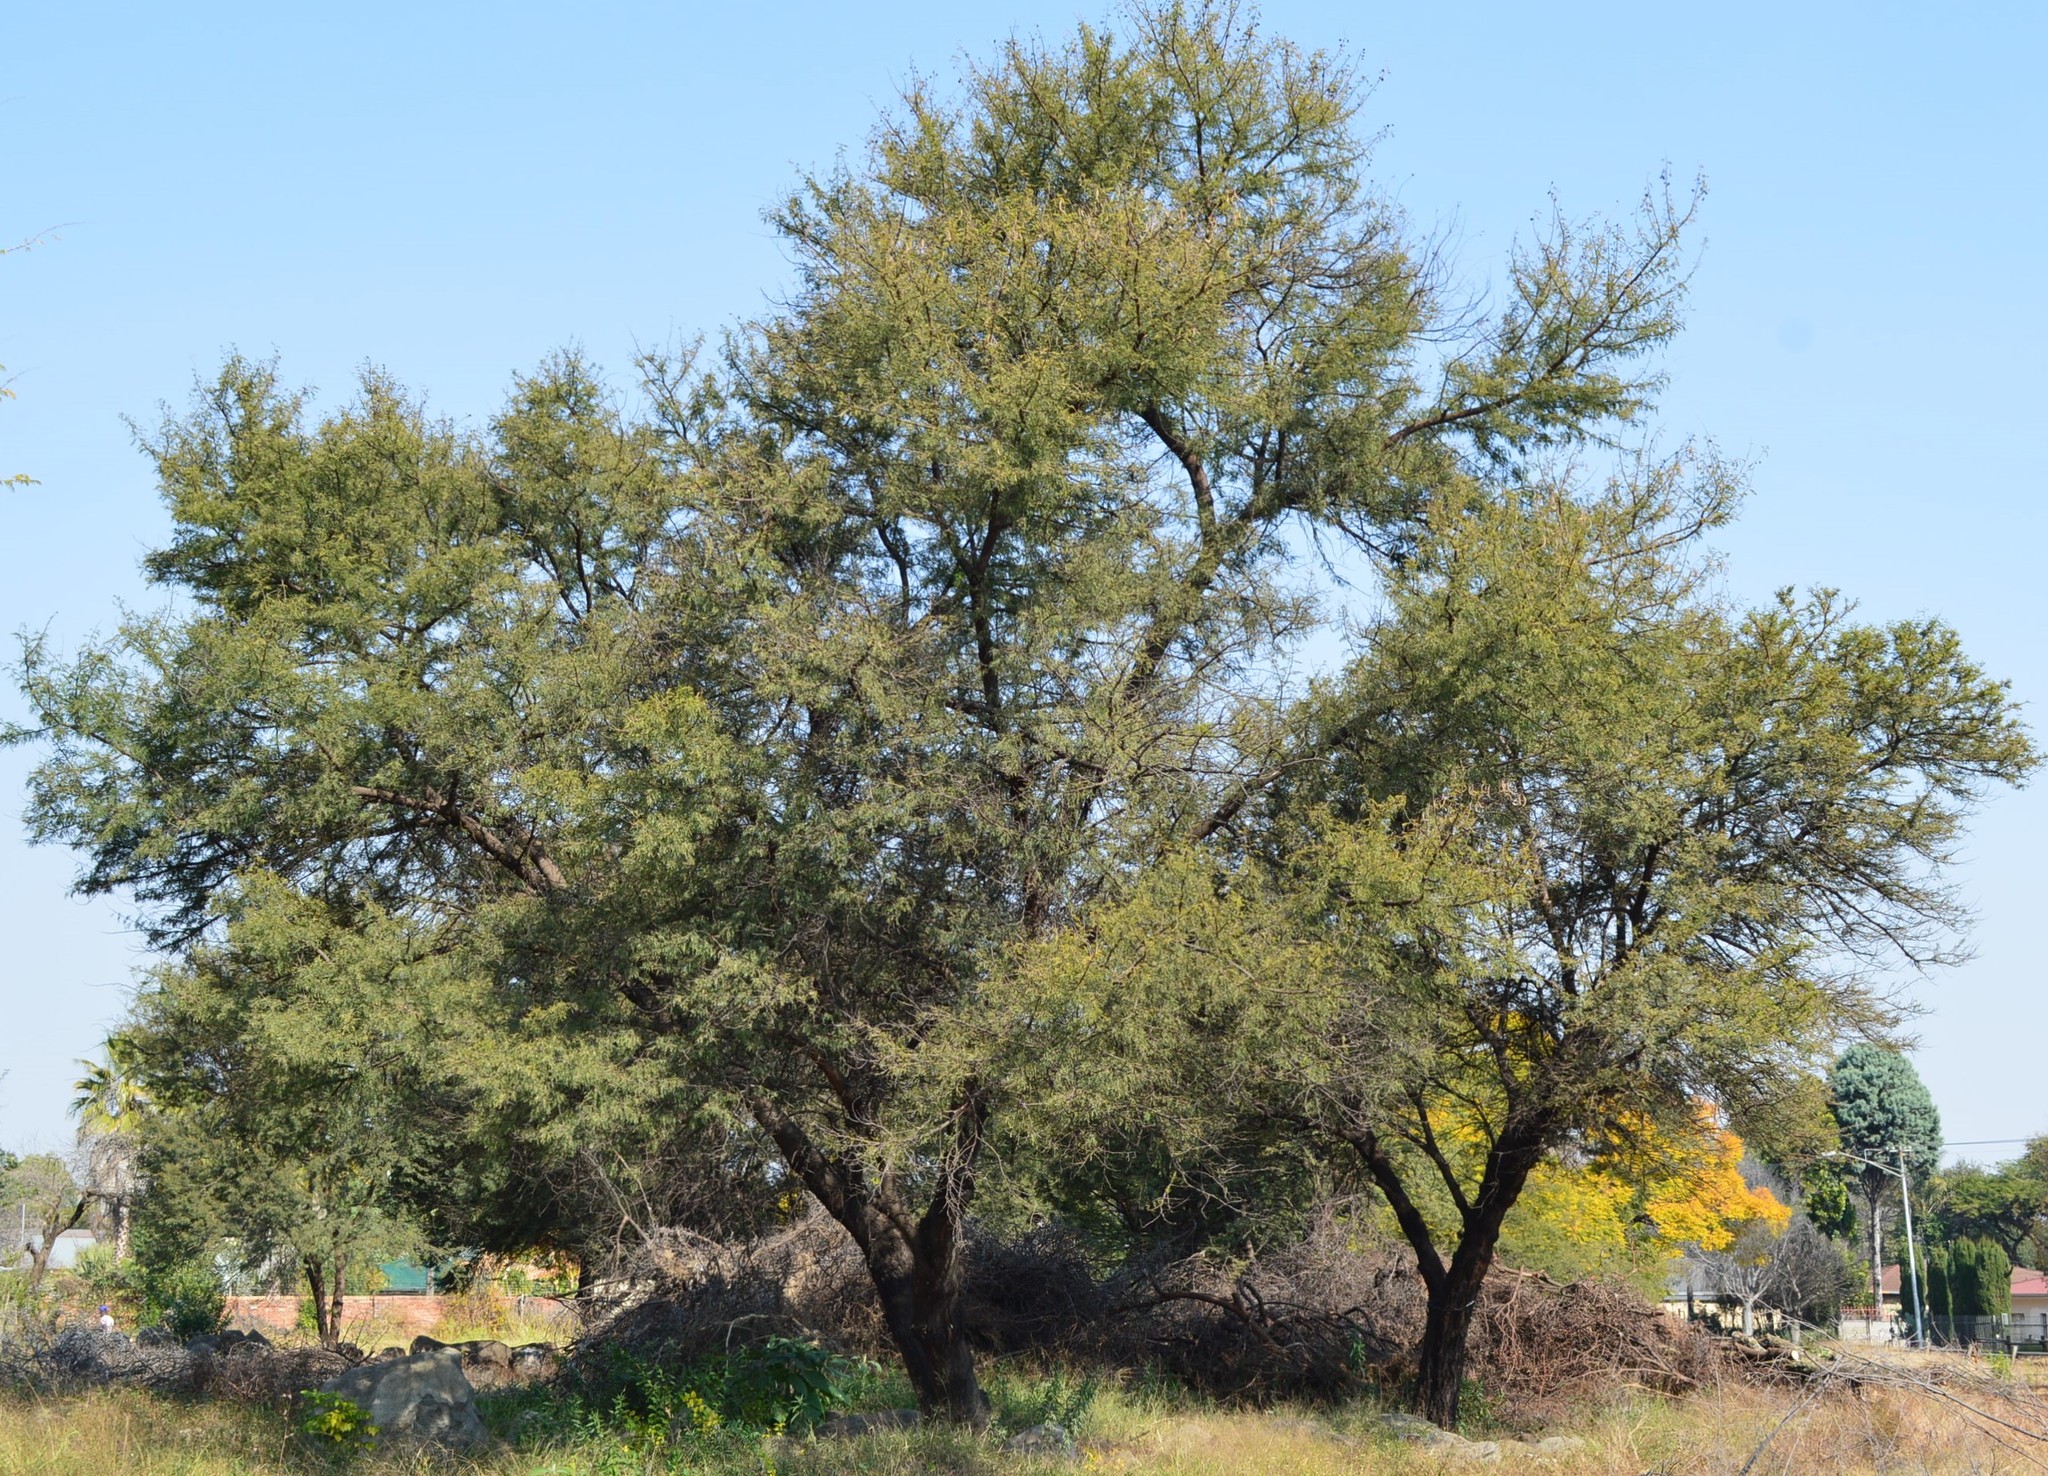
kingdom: Plantae
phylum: Tracheophyta
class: Magnoliopsida
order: Fabales
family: Fabaceae
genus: Vachellia
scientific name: Vachellia karroo
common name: Sweet thorn
